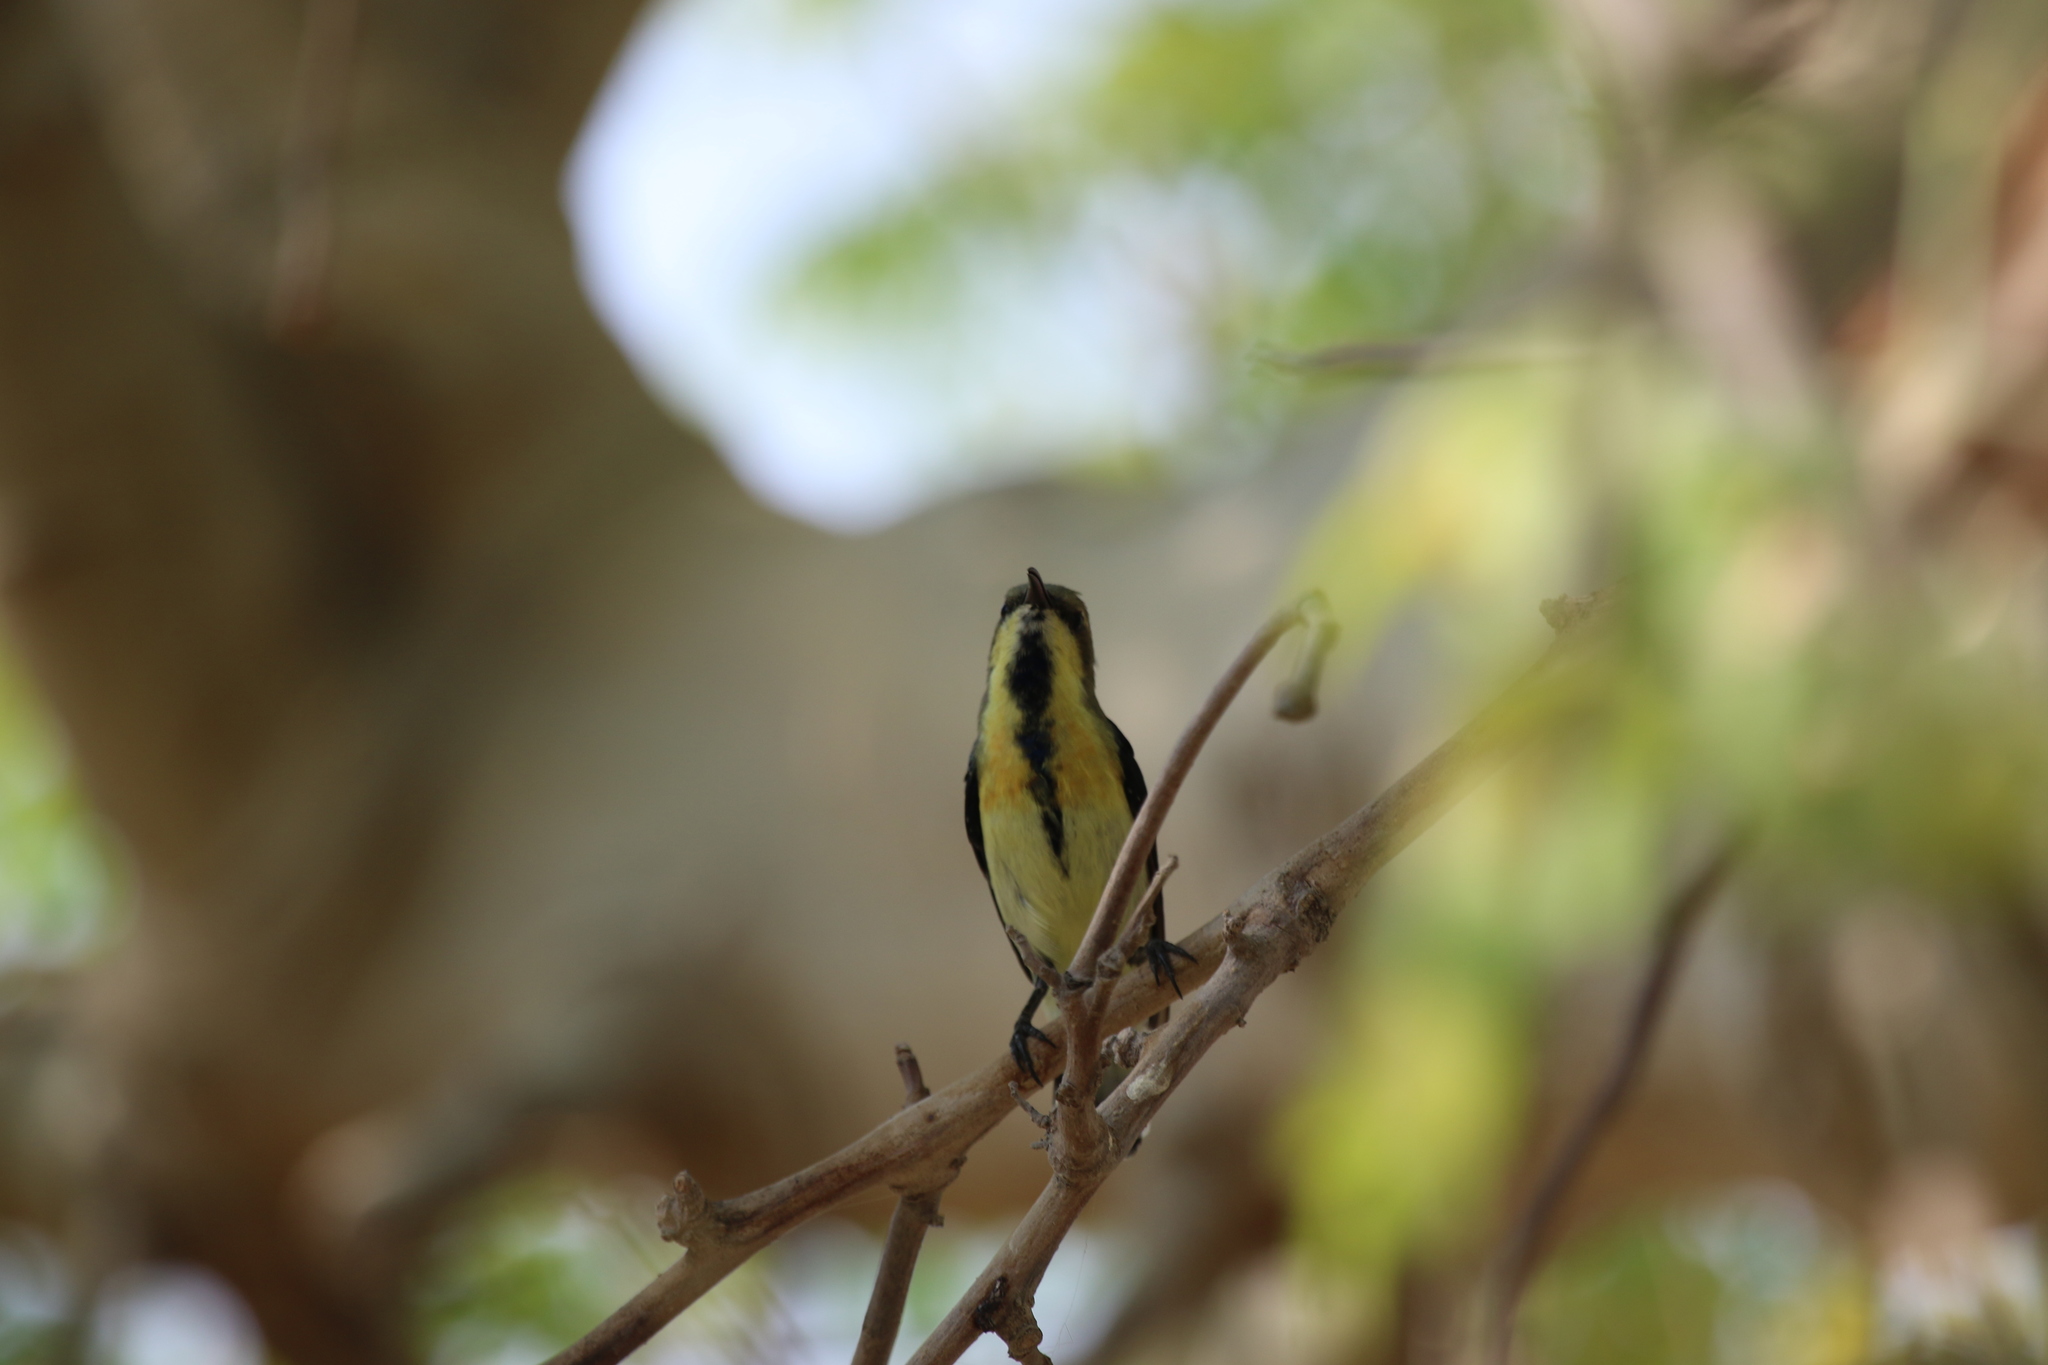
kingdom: Animalia
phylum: Chordata
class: Aves
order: Passeriformes
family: Nectariniidae
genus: Cinnyris
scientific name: Cinnyris asiaticus
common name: Purple sunbird
